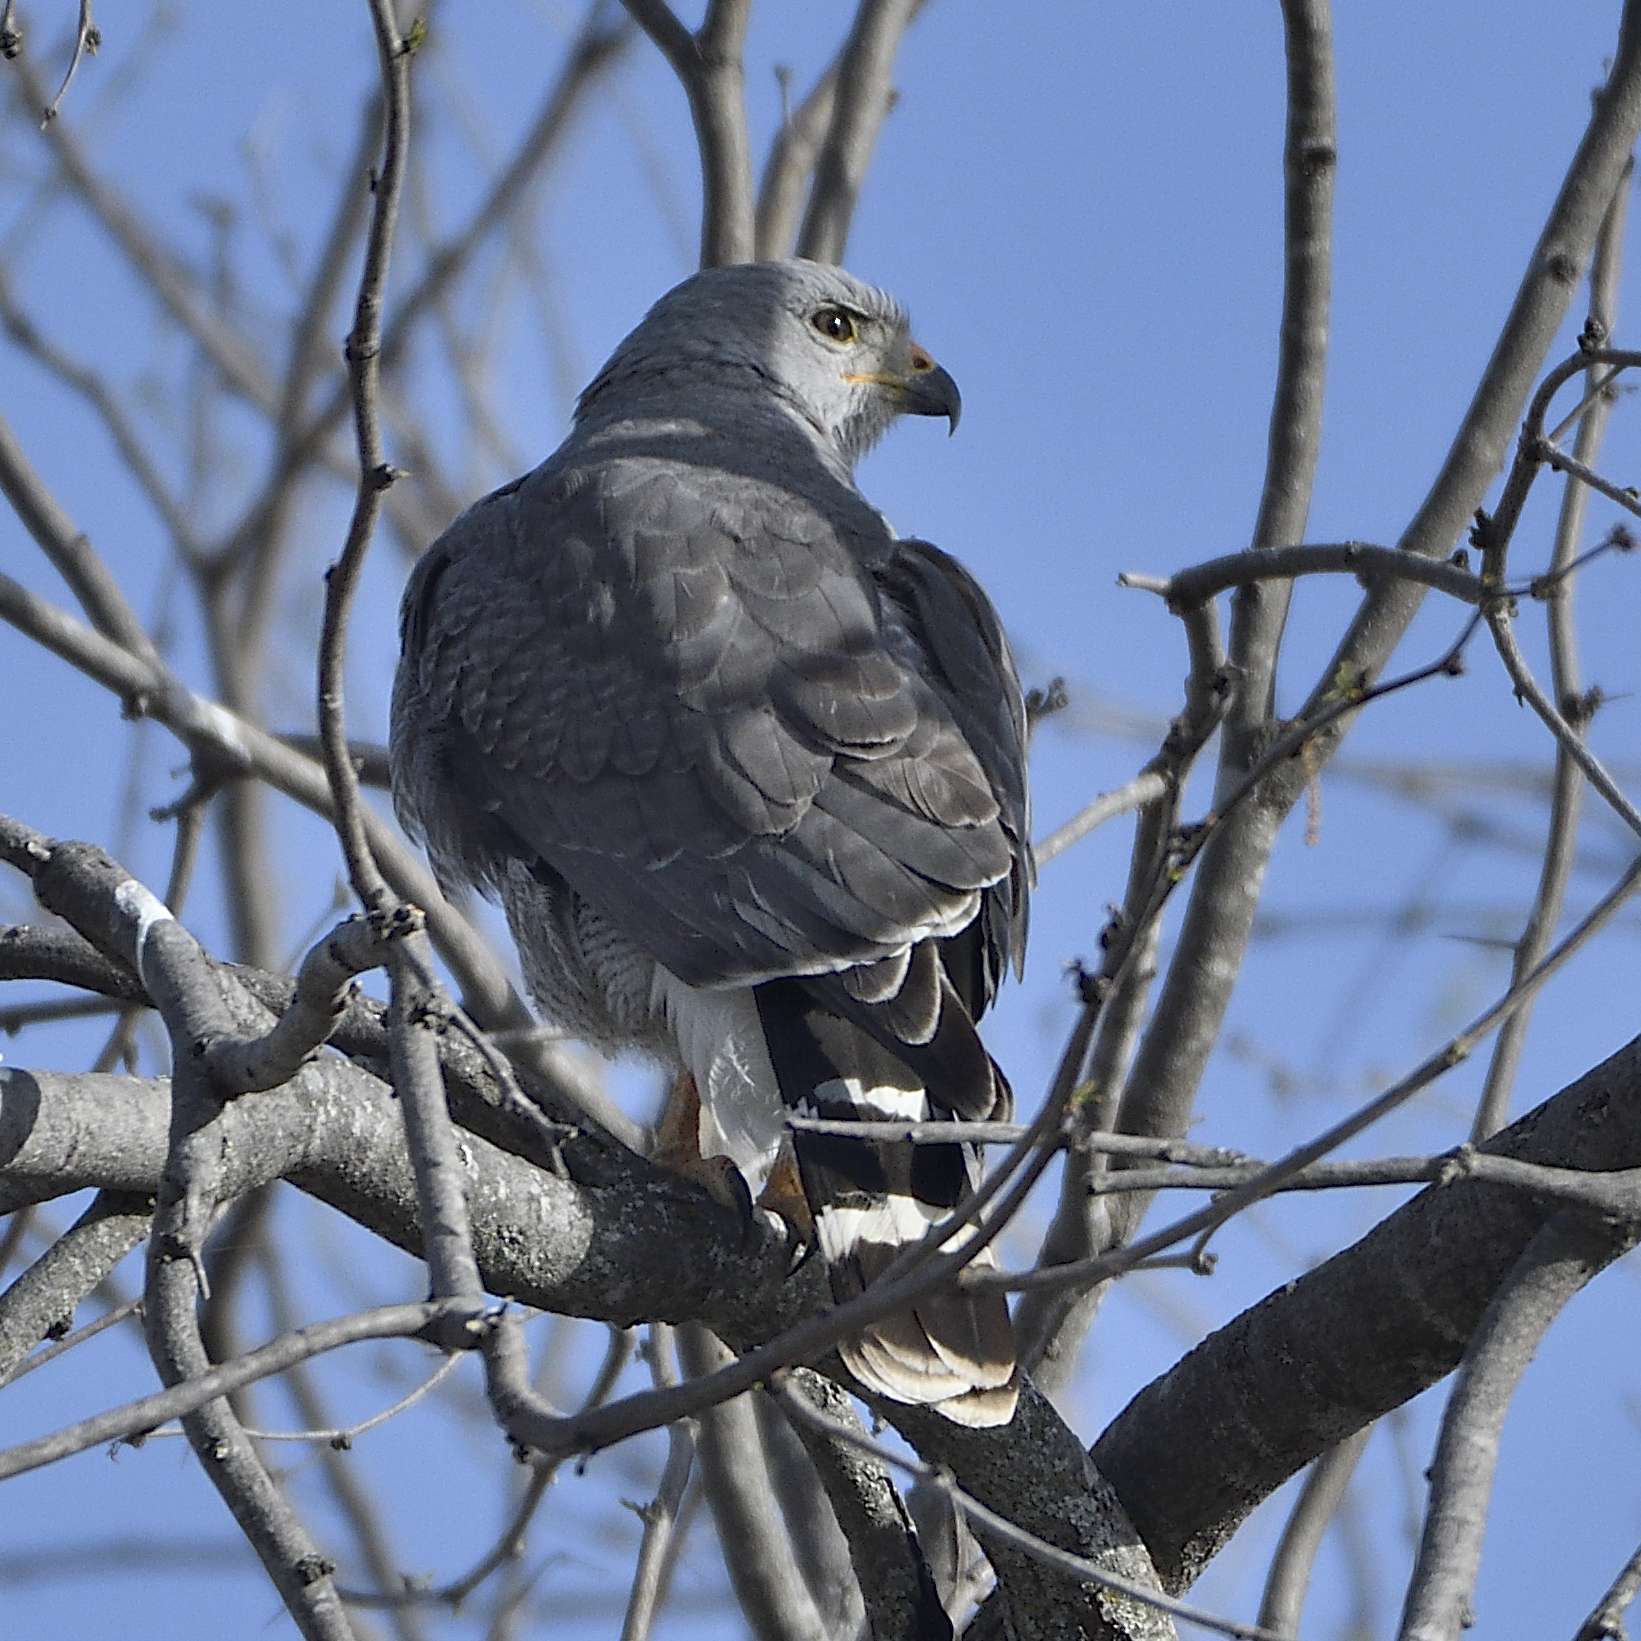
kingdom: Animalia
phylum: Chordata
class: Aves
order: Accipitriformes
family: Accipitridae
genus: Buteo
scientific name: Buteo nitidus
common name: Grey-lined hawk
